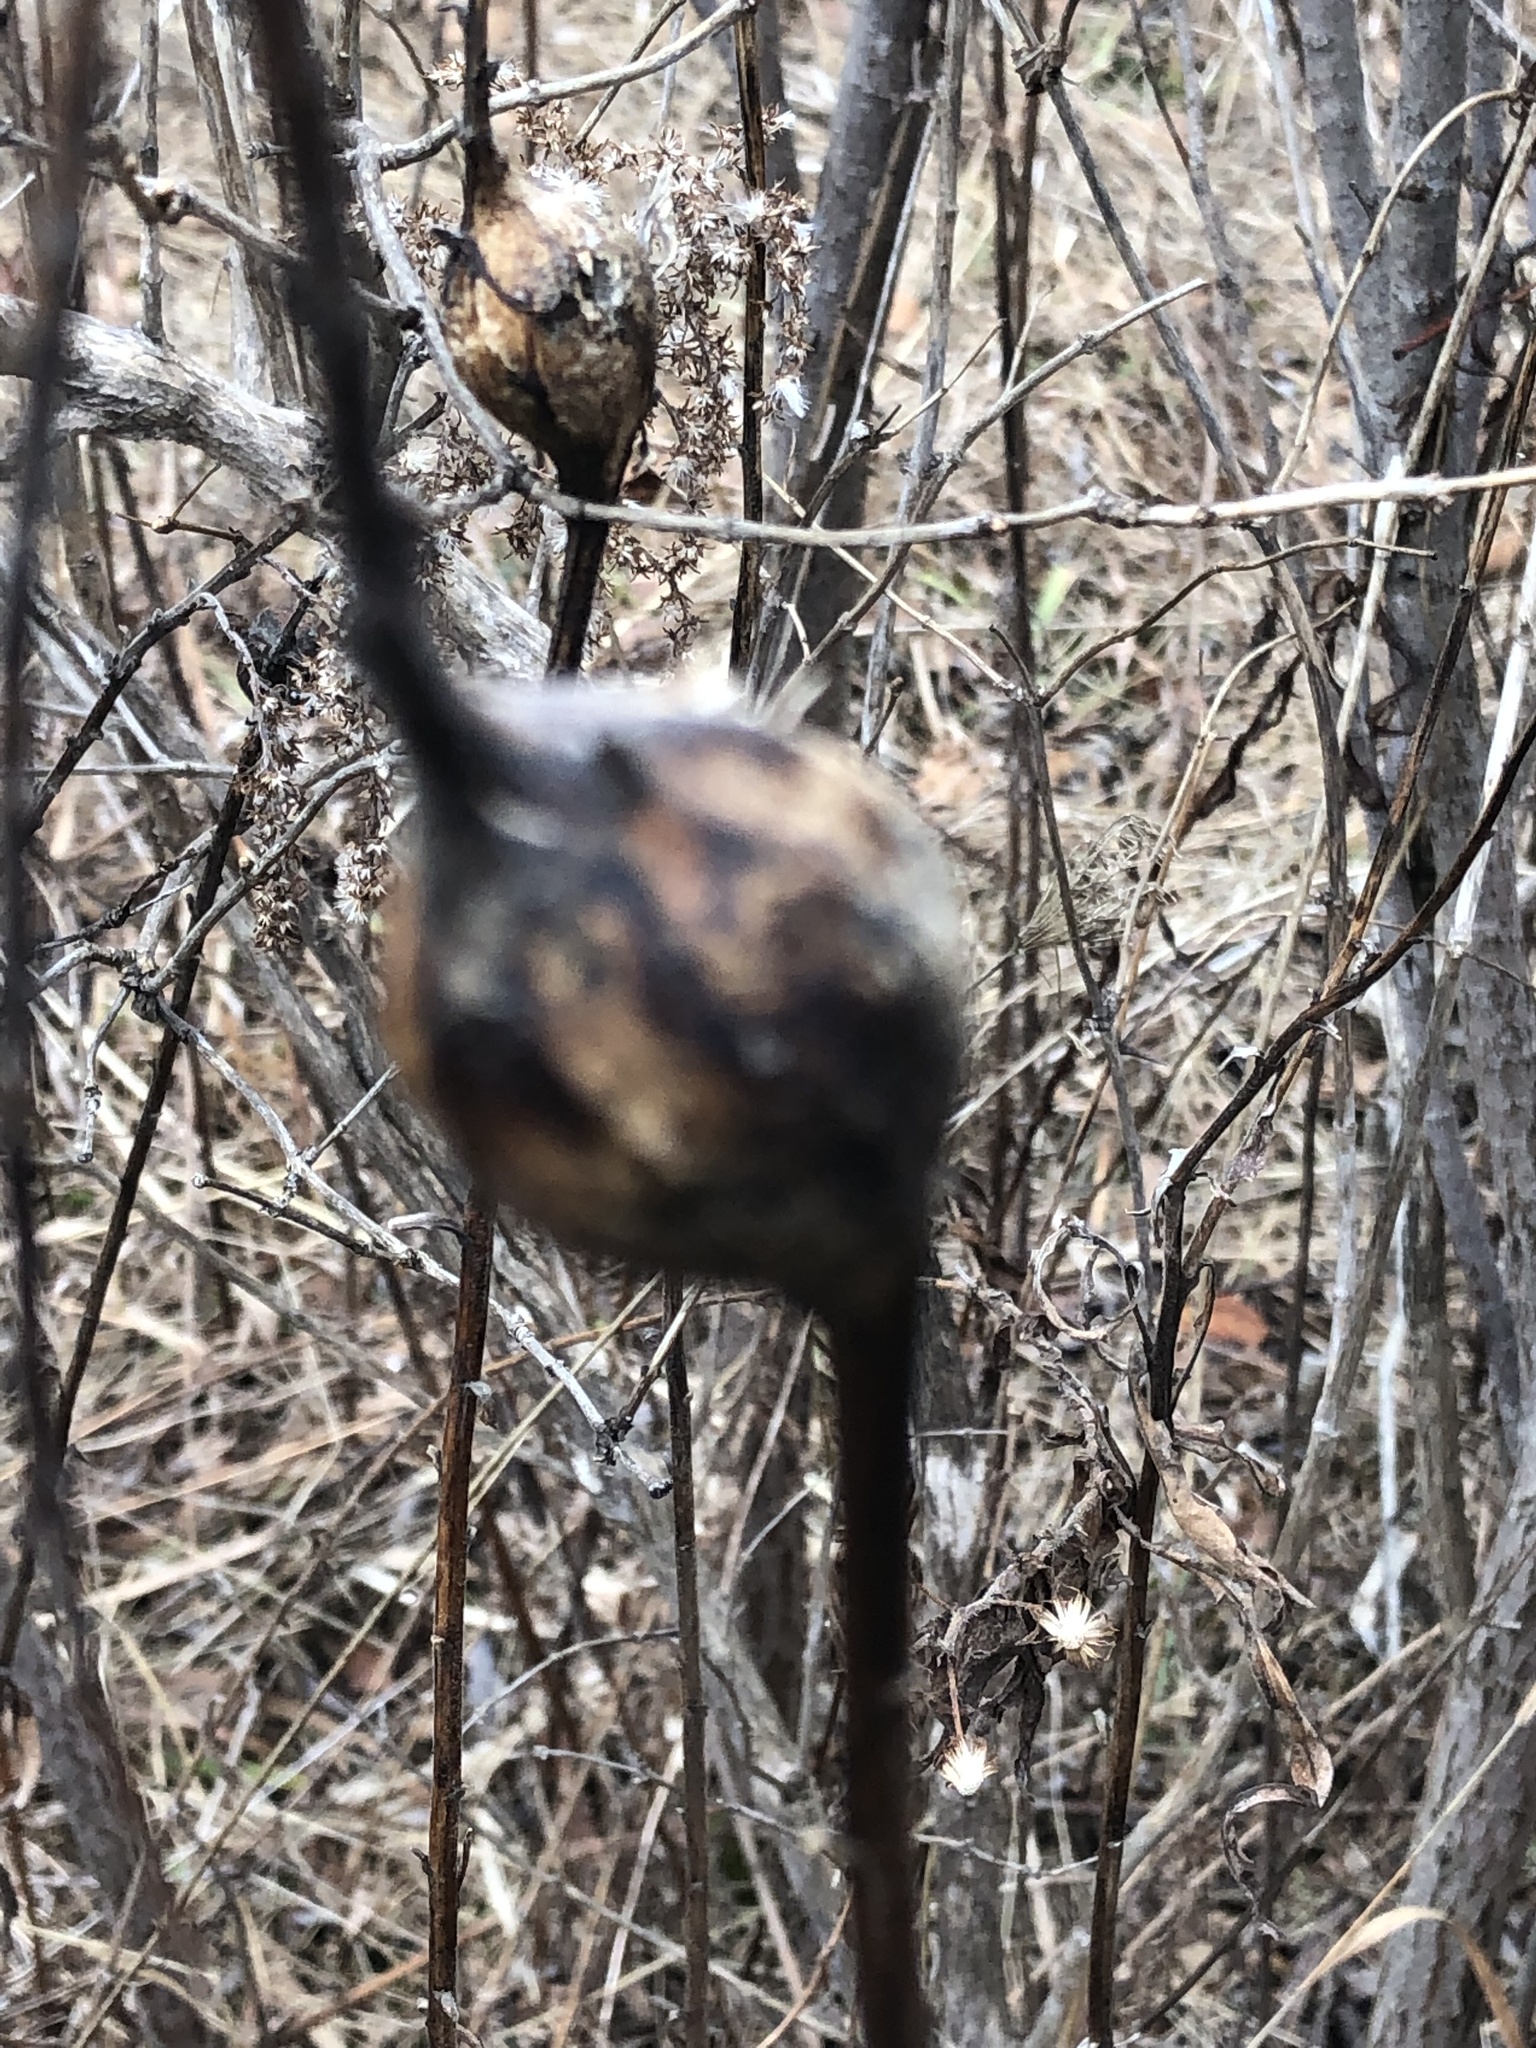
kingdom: Animalia
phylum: Arthropoda
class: Insecta
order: Diptera
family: Tephritidae
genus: Eurosta
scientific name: Eurosta solidaginis
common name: Goldenrod gall fly
